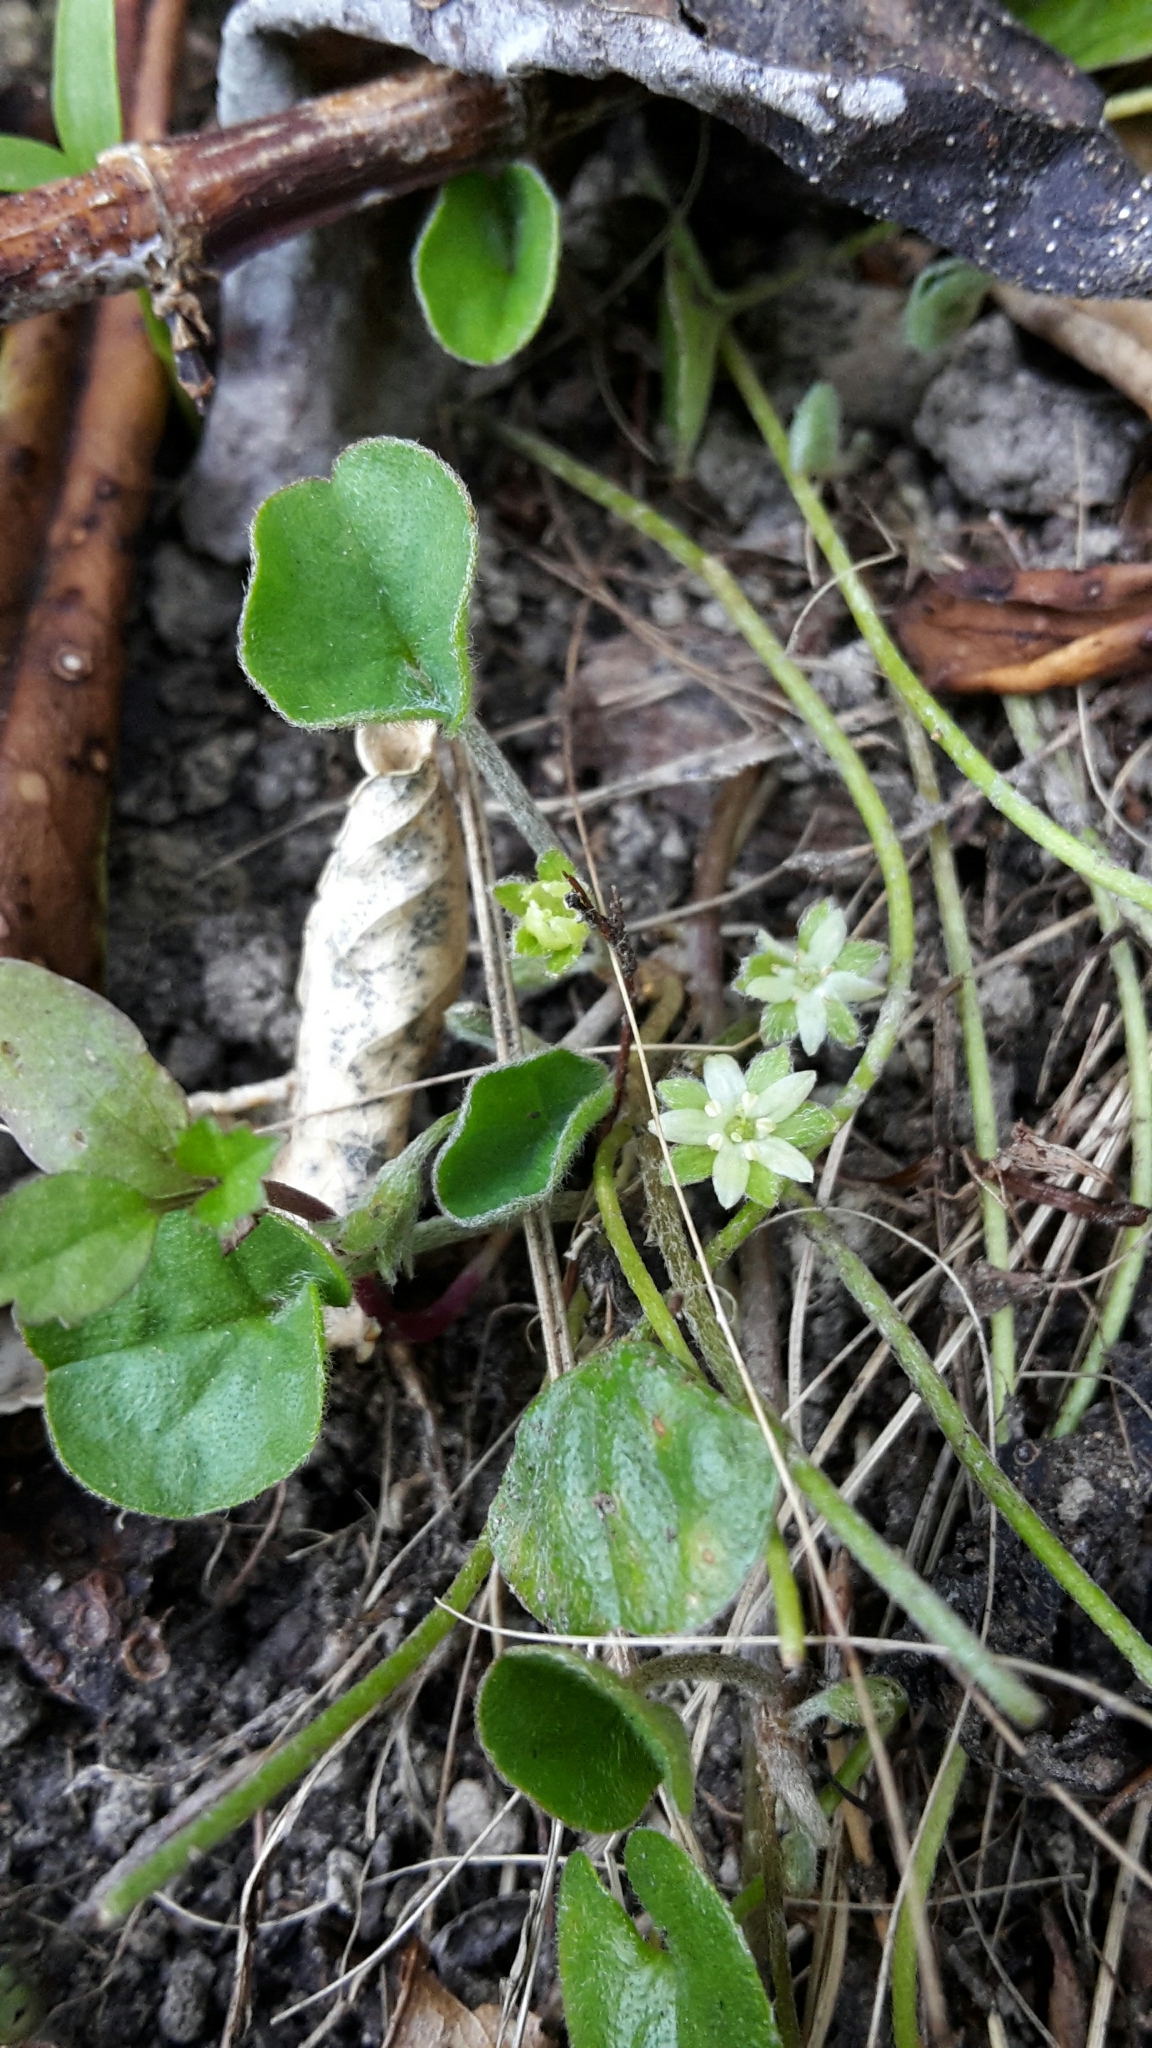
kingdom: Plantae
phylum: Tracheophyta
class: Magnoliopsida
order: Solanales
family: Convolvulaceae
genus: Dichondra
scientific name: Dichondra repens
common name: Kidneyweed
